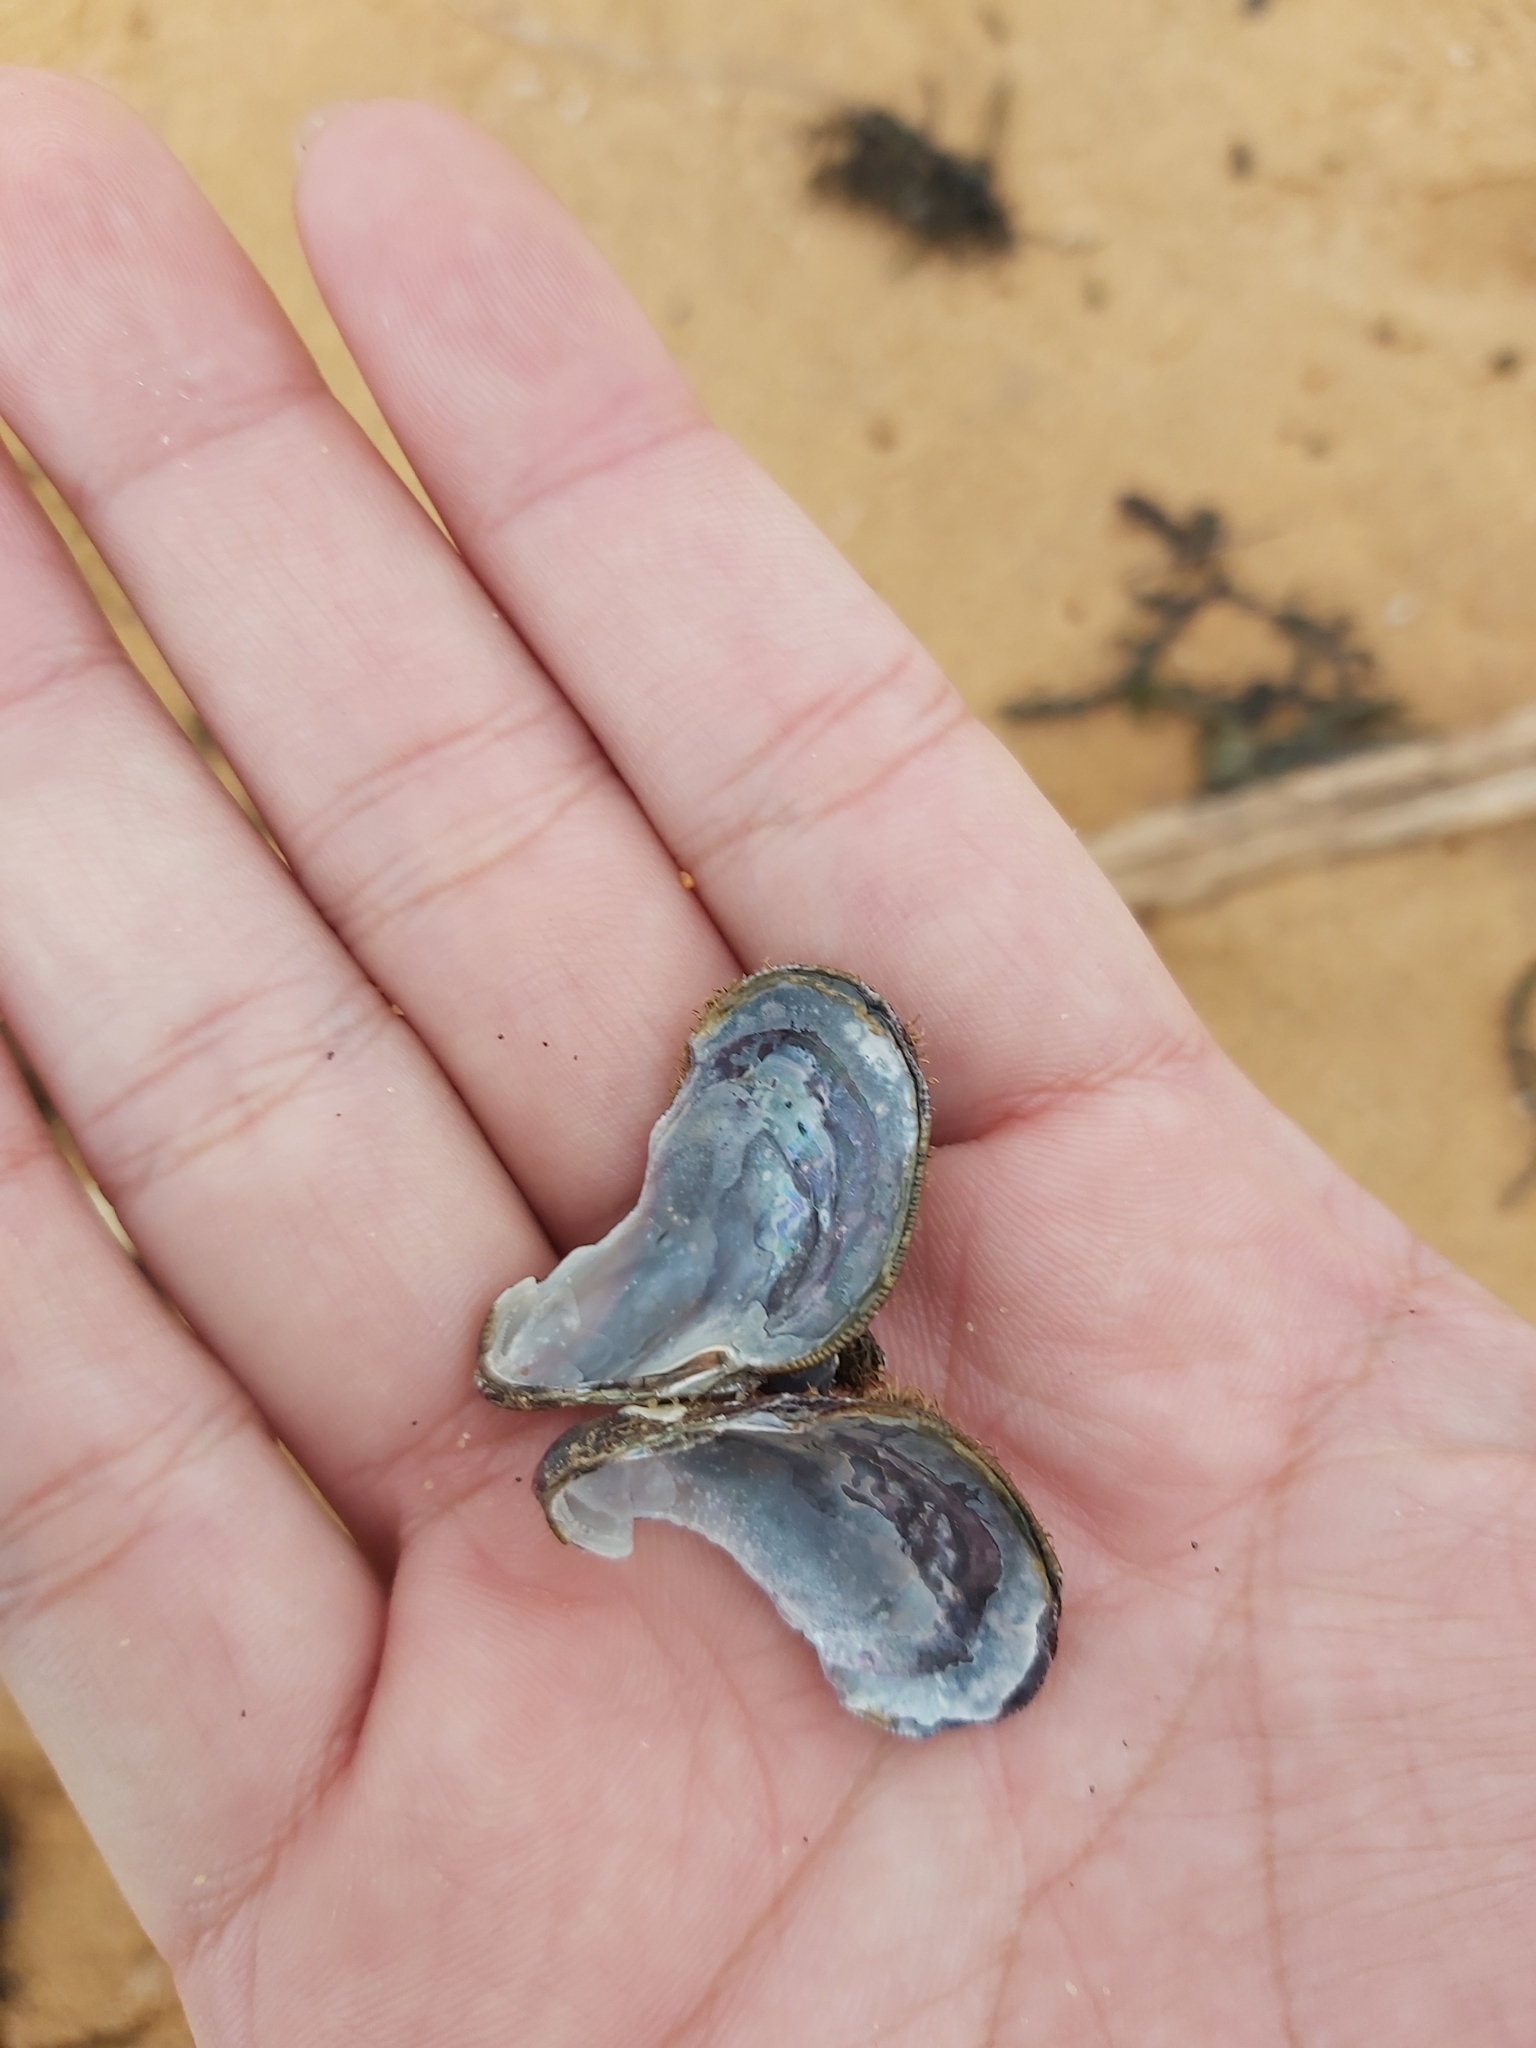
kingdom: Animalia
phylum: Mollusca
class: Bivalvia
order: Mytilida
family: Mytilidae
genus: Trichomya
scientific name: Trichomya hirsuta
